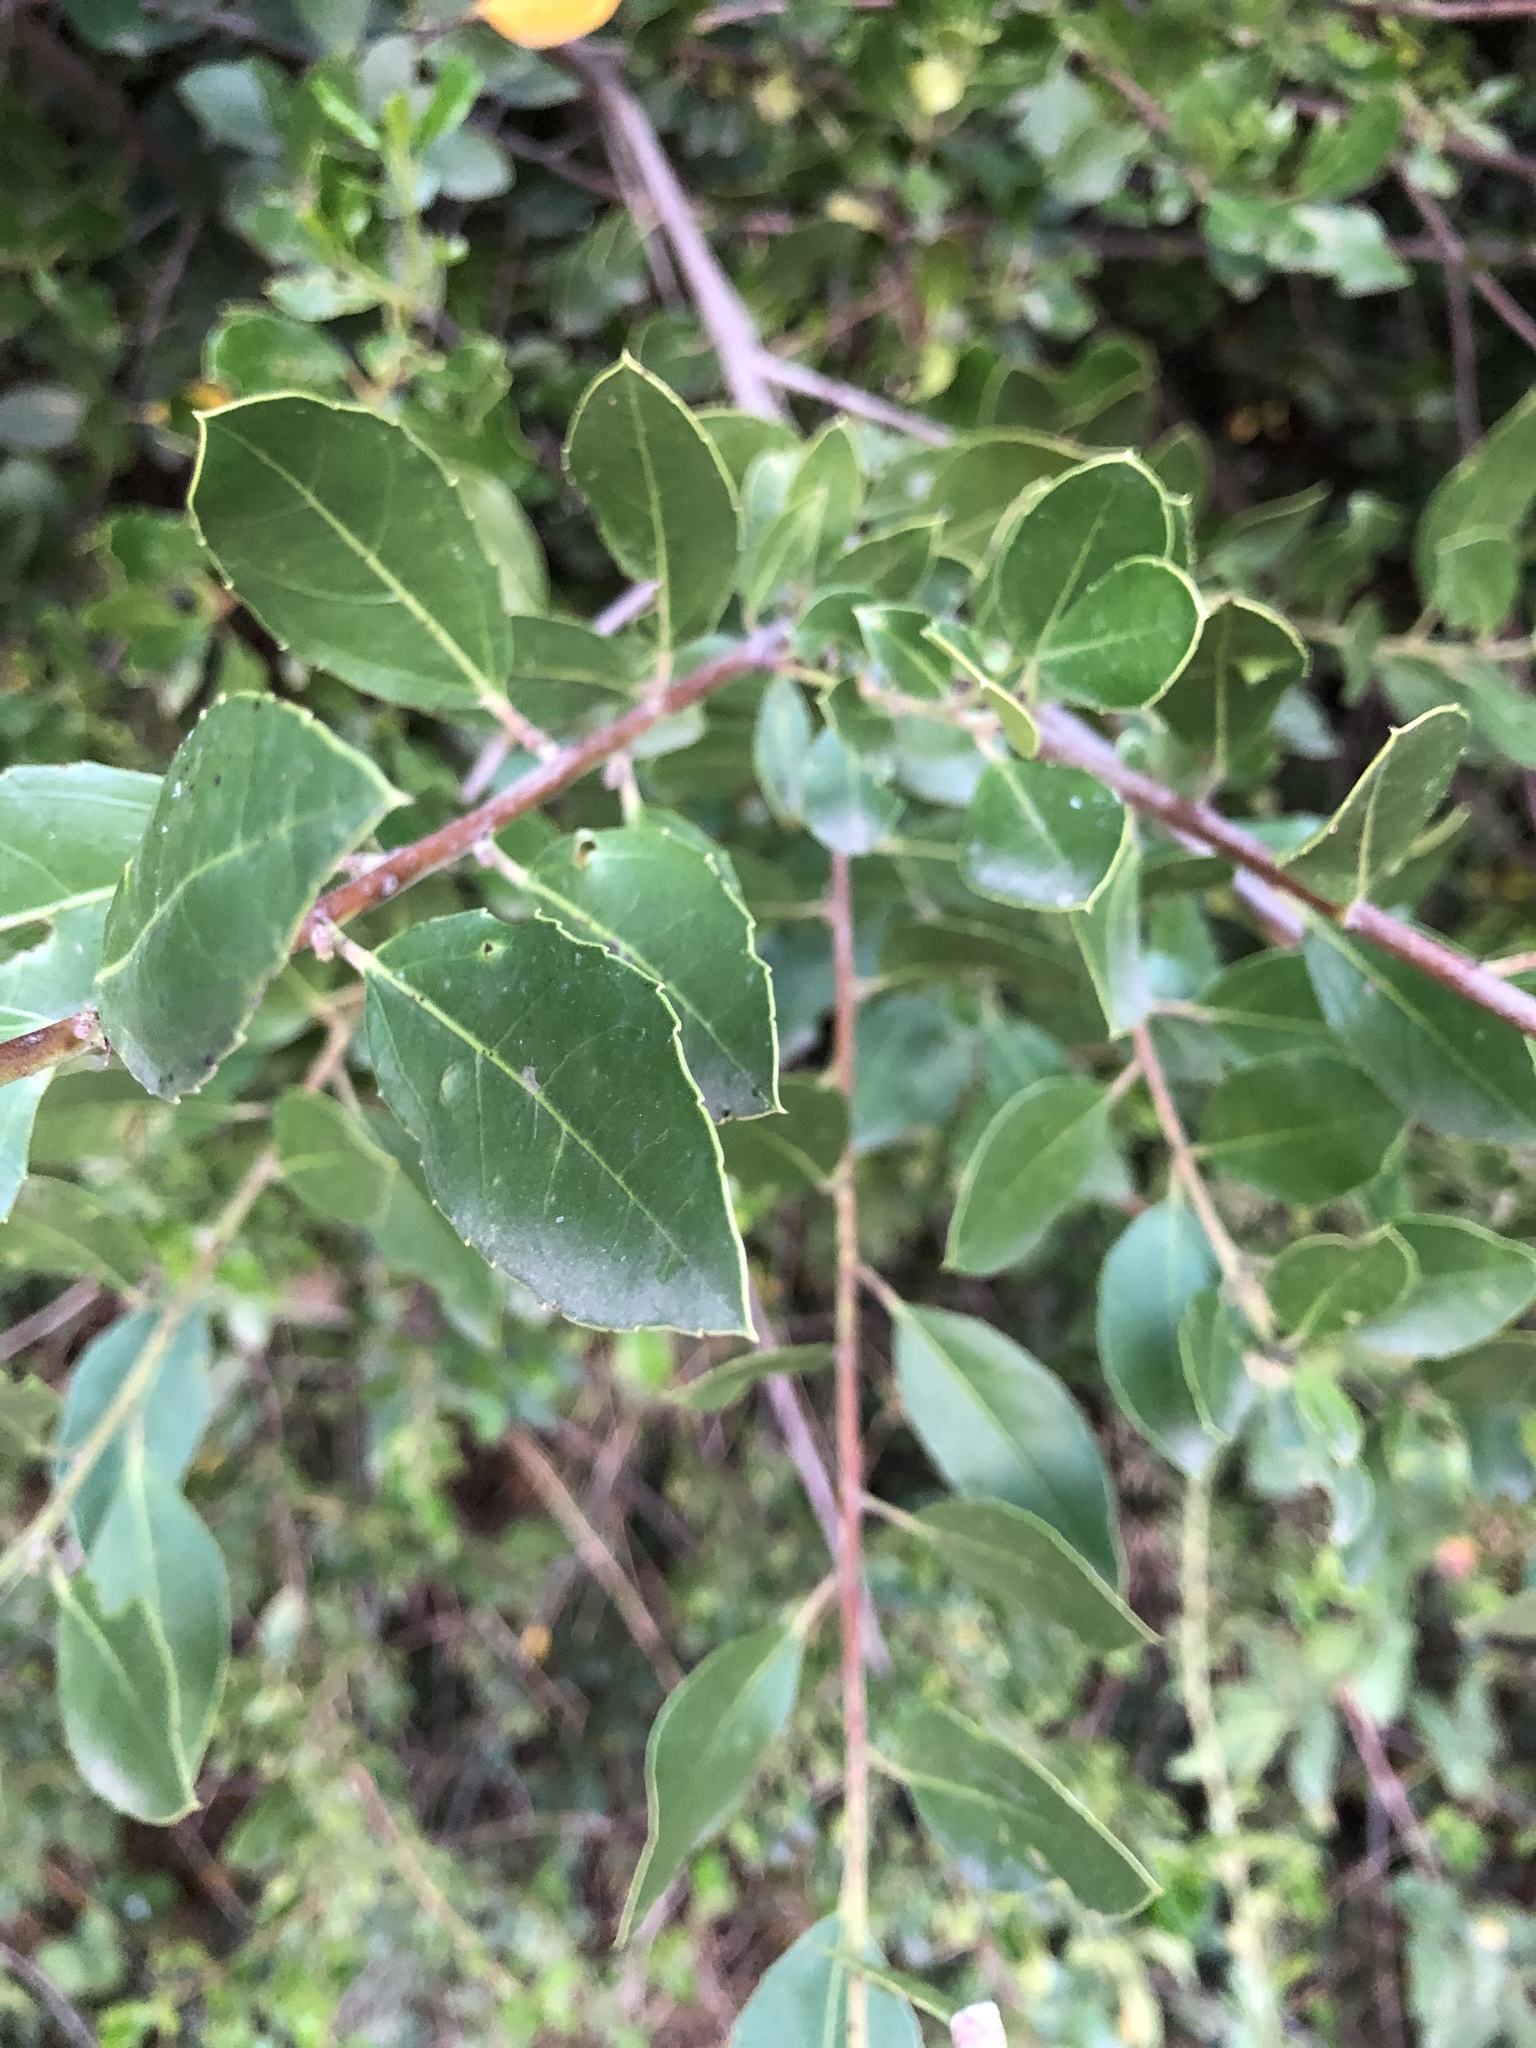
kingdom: Plantae
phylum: Tracheophyta
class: Magnoliopsida
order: Rosales
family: Rhamnaceae
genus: Rhamnus
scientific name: Rhamnus alaternus
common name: Mediterranean buckthorn
